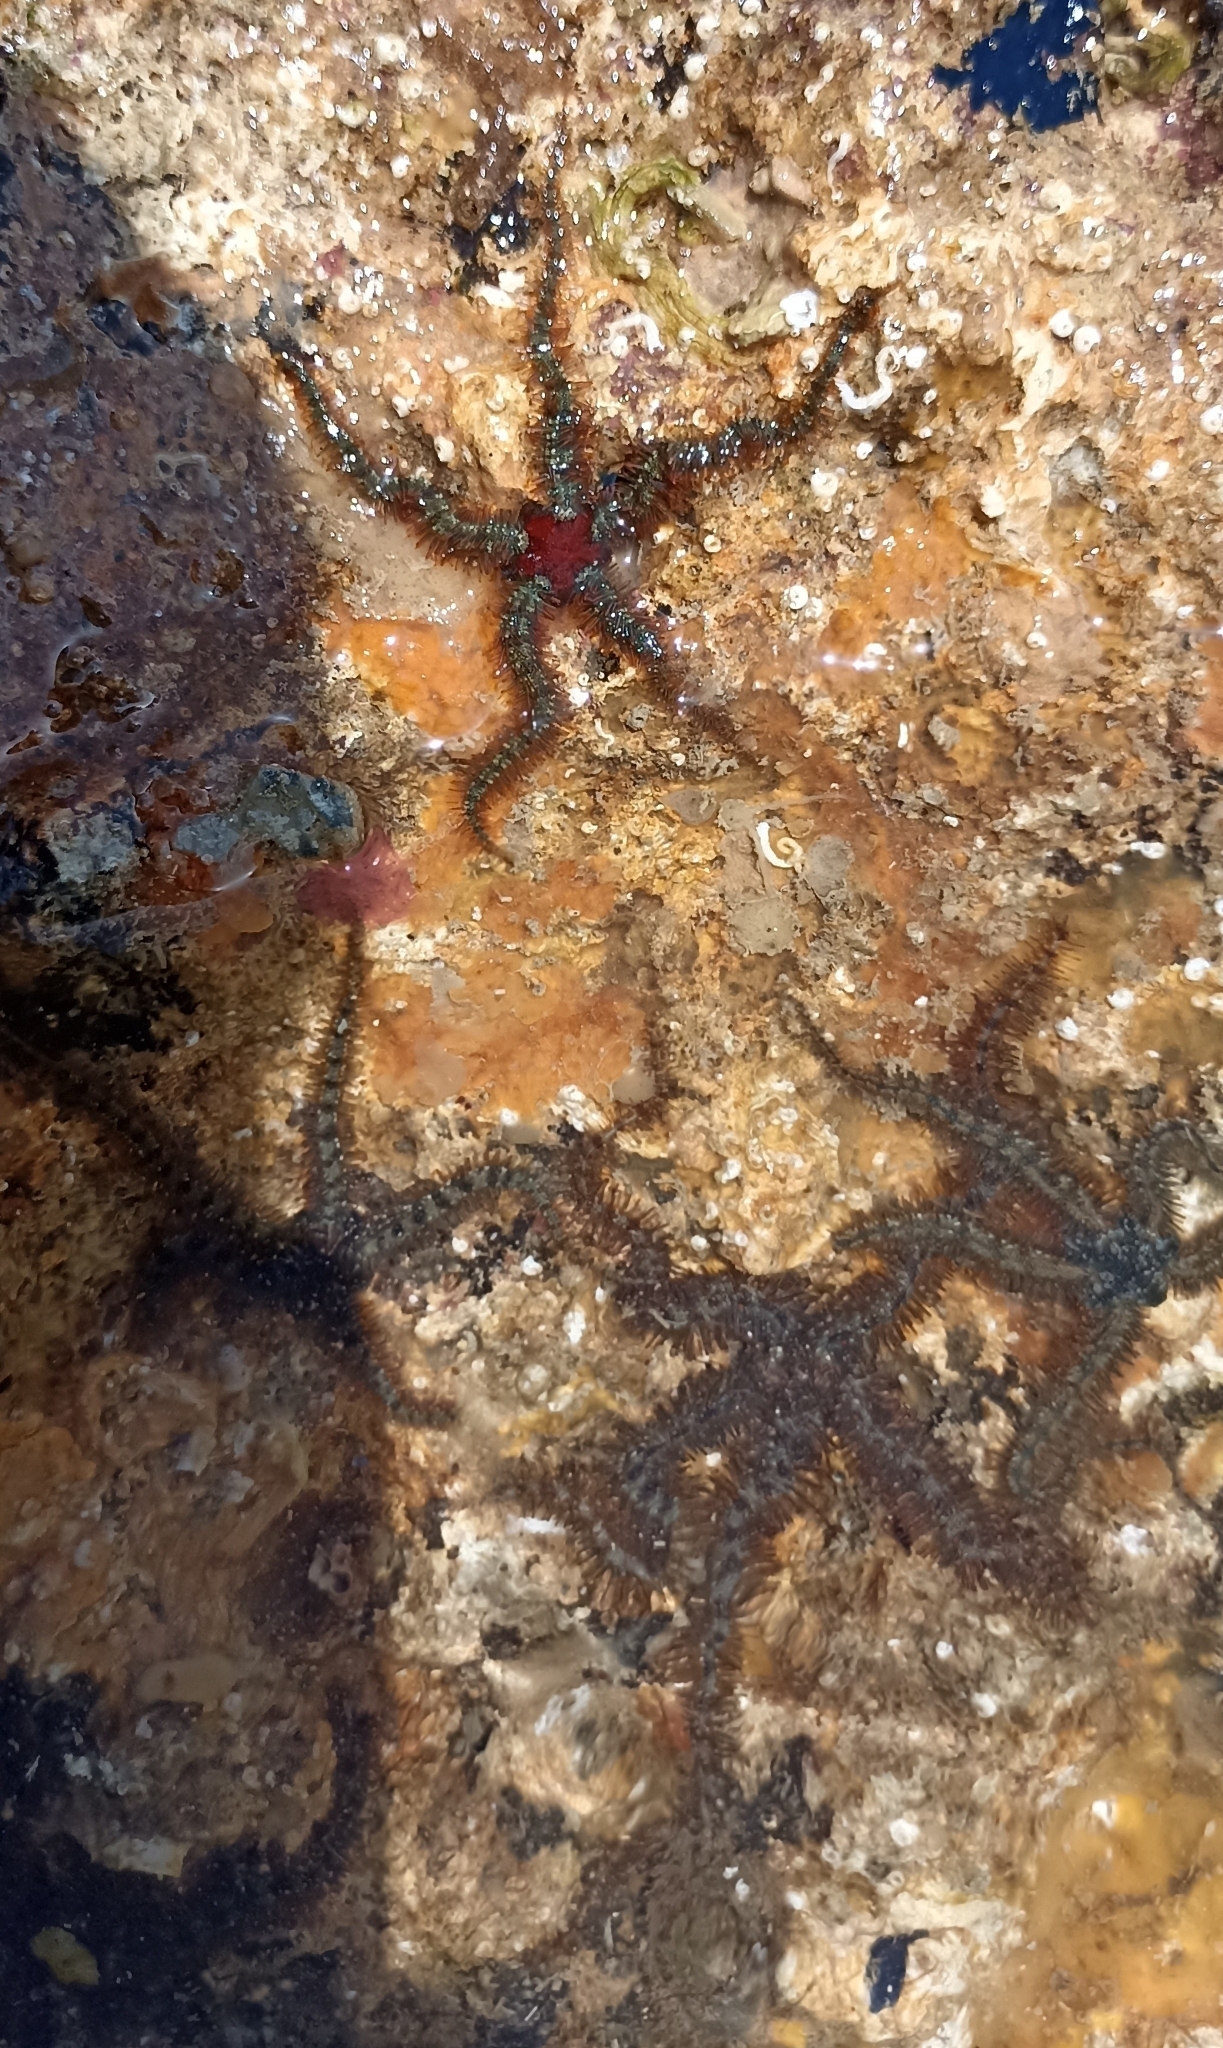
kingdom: Animalia
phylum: Echinodermata
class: Ophiuroidea
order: Amphilepidida
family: Ophiotrichidae
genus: Ophiothrix
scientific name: Ophiothrix fragilis
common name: Common brittlestar
